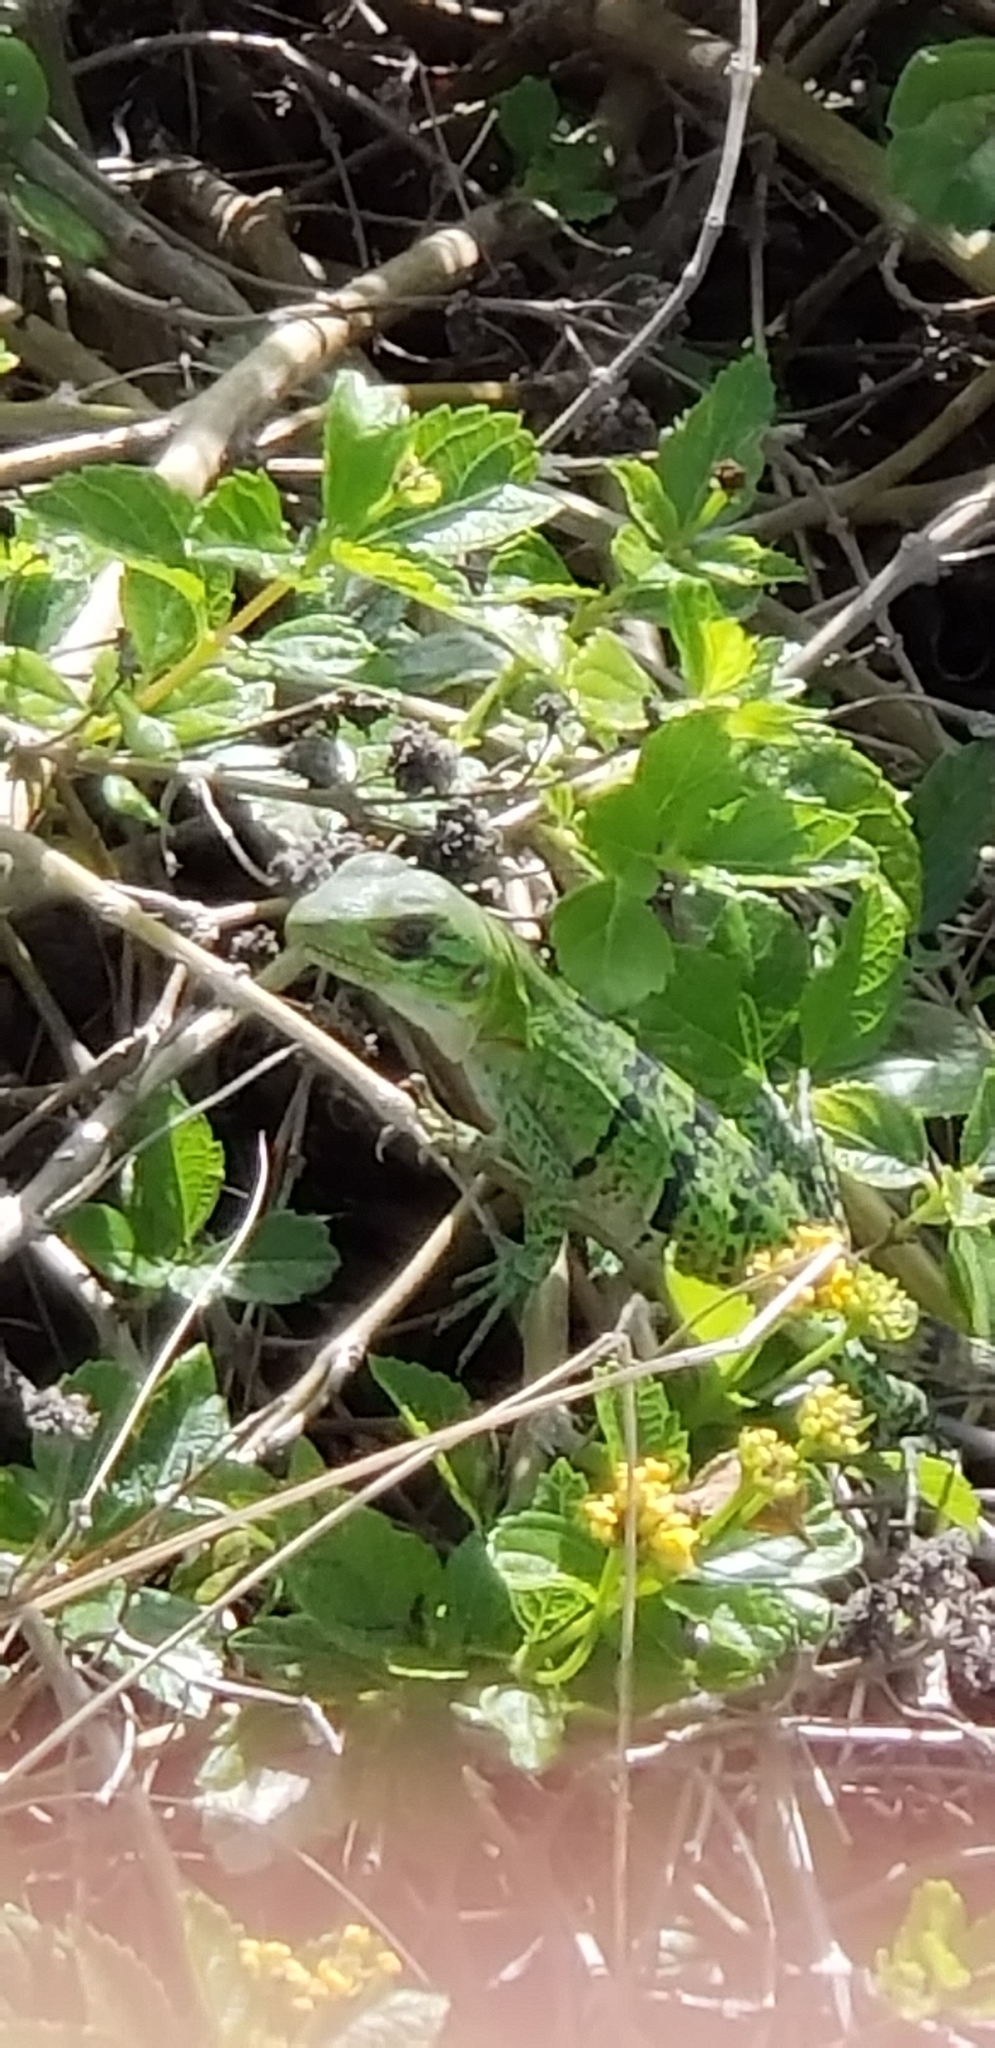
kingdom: Animalia
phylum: Chordata
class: Squamata
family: Iguanidae
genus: Ctenosaura
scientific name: Ctenosaura similis
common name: Black spiny-tailed iguana
